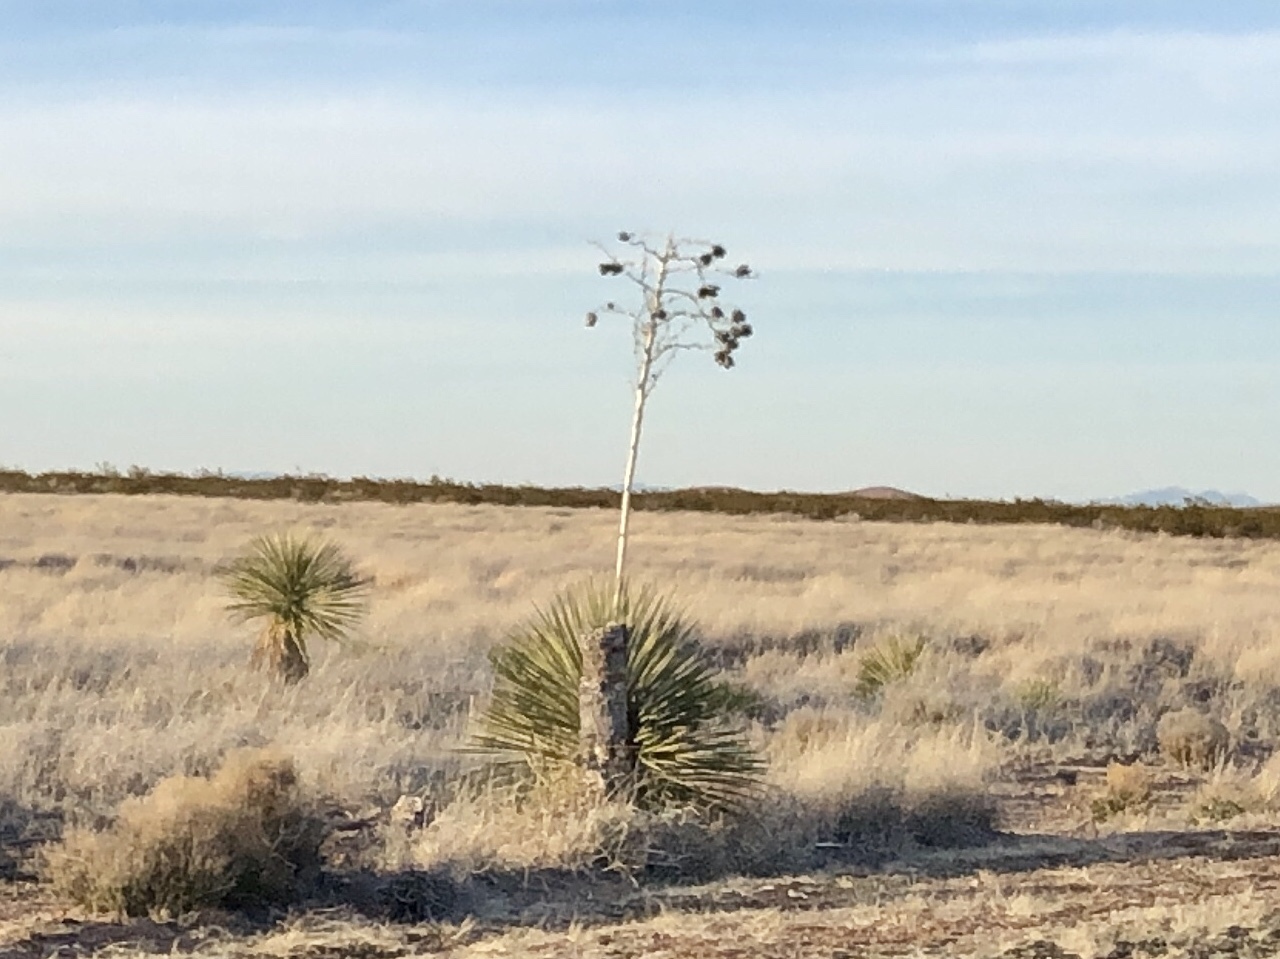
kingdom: Plantae
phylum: Tracheophyta
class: Liliopsida
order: Asparagales
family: Asparagaceae
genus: Yucca
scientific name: Yucca elata
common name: Palmella
